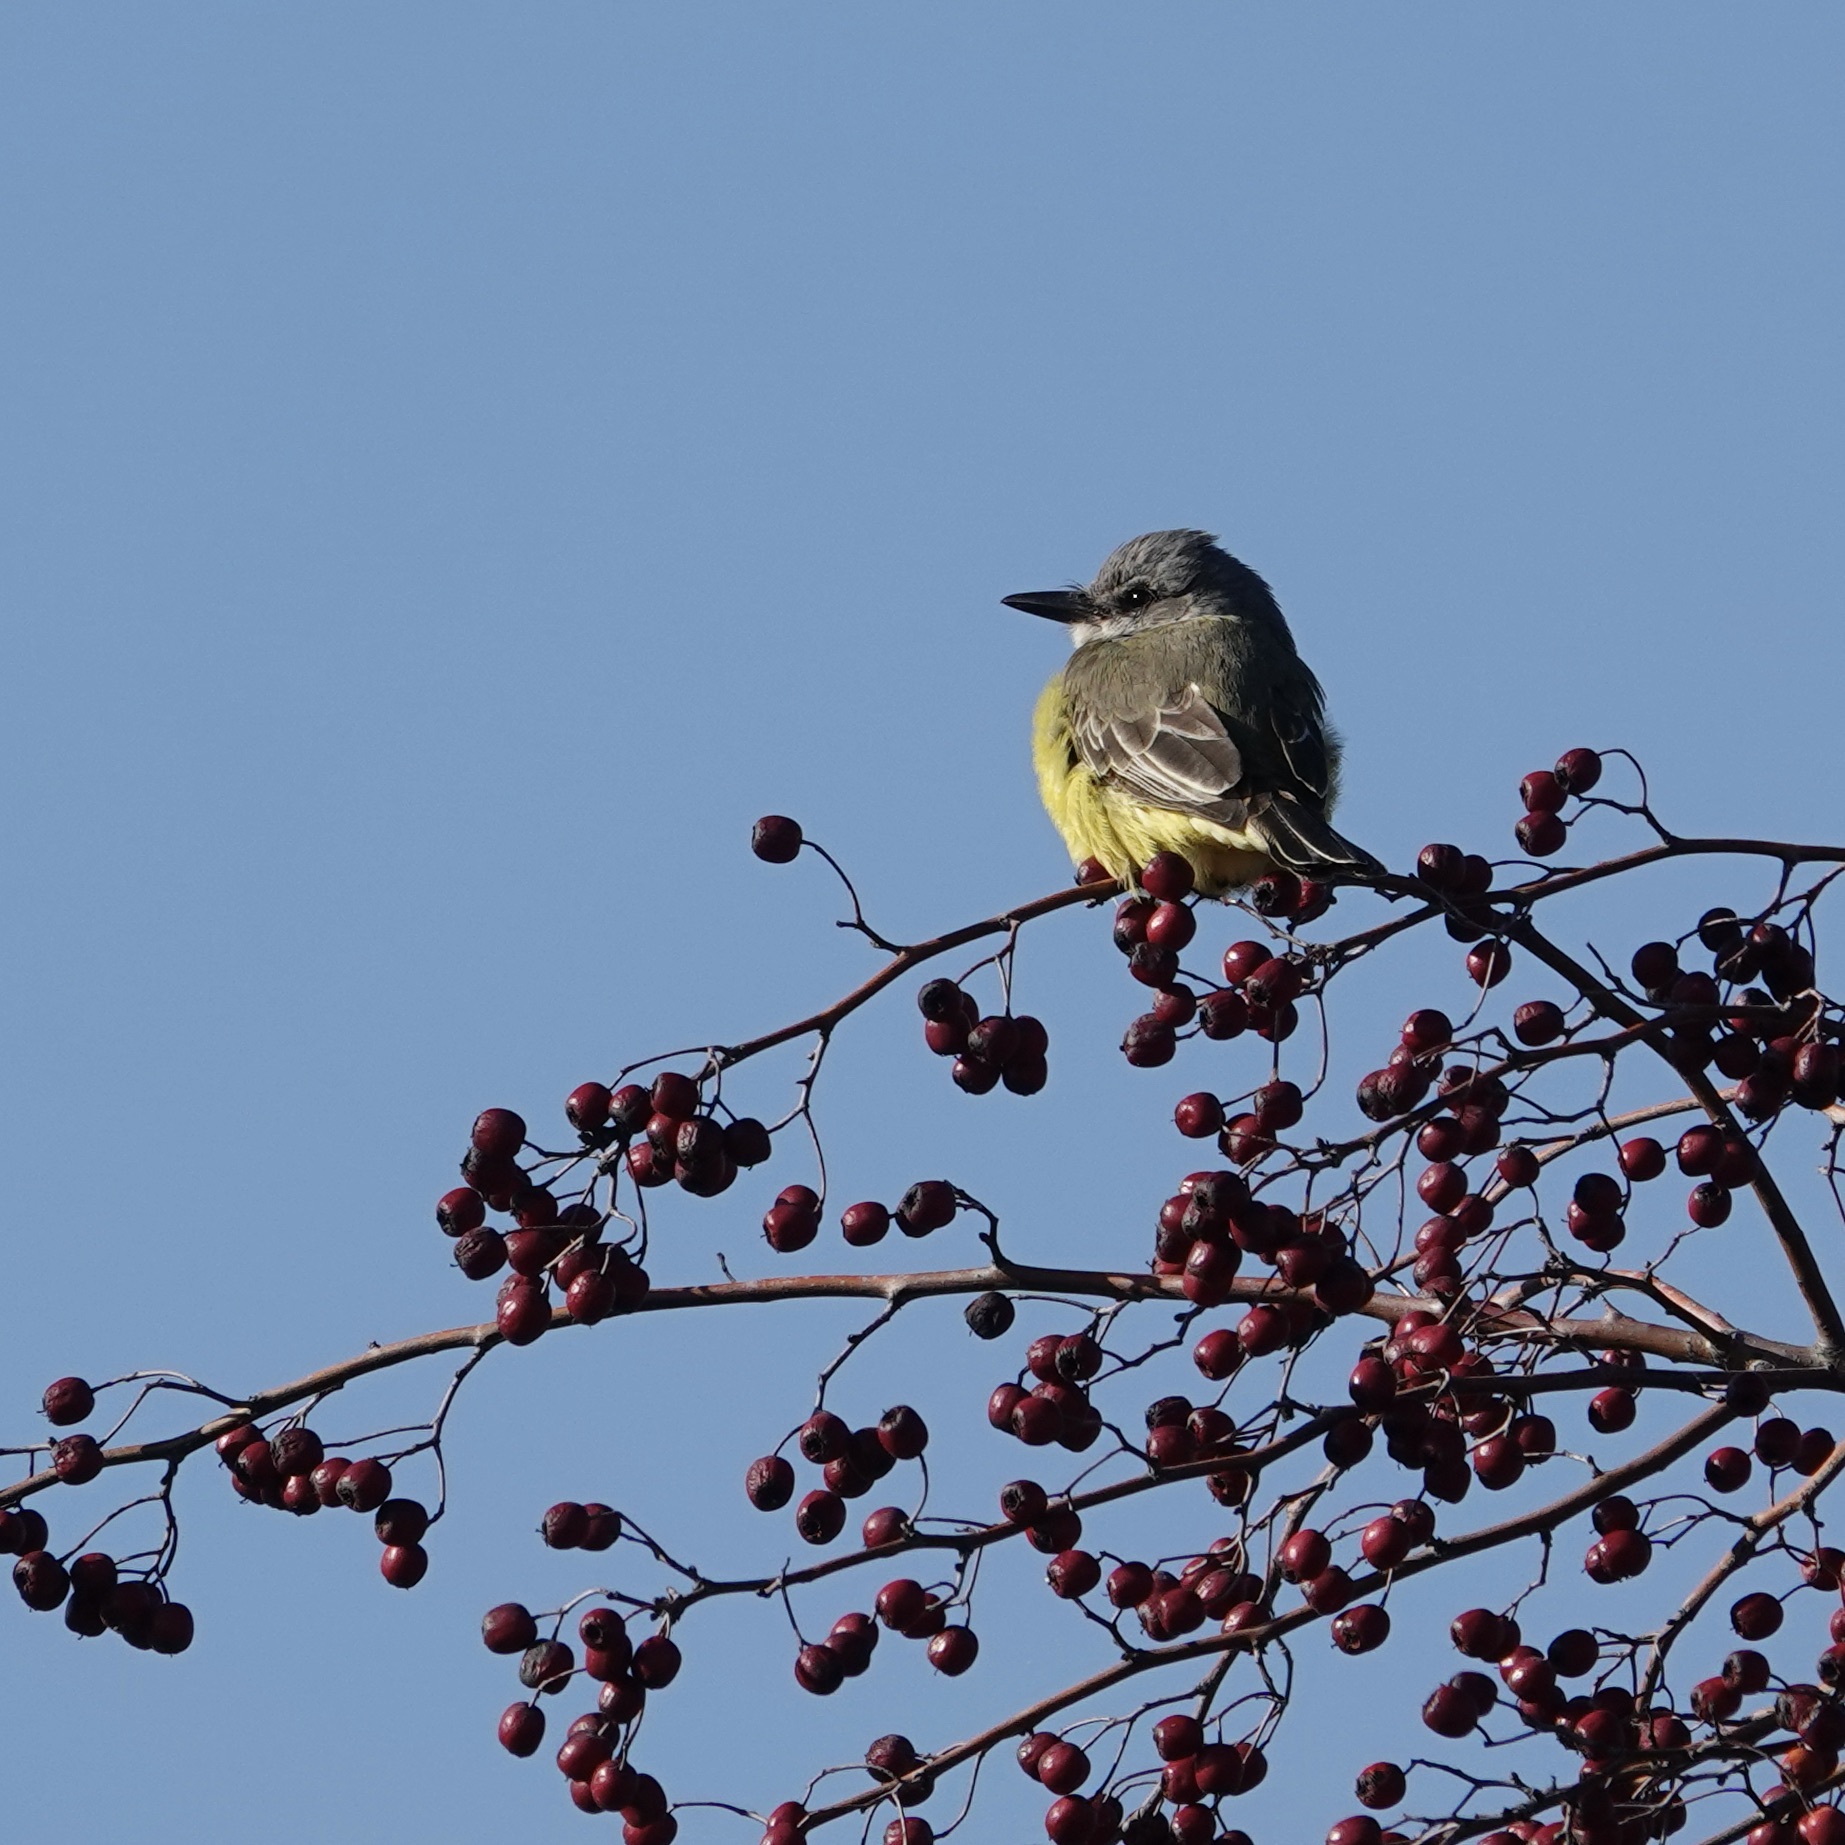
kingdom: Animalia
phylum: Chordata
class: Aves
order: Passeriformes
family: Tyrannidae
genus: Tyrannus
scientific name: Tyrannus melancholicus
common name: Tropical kingbird
